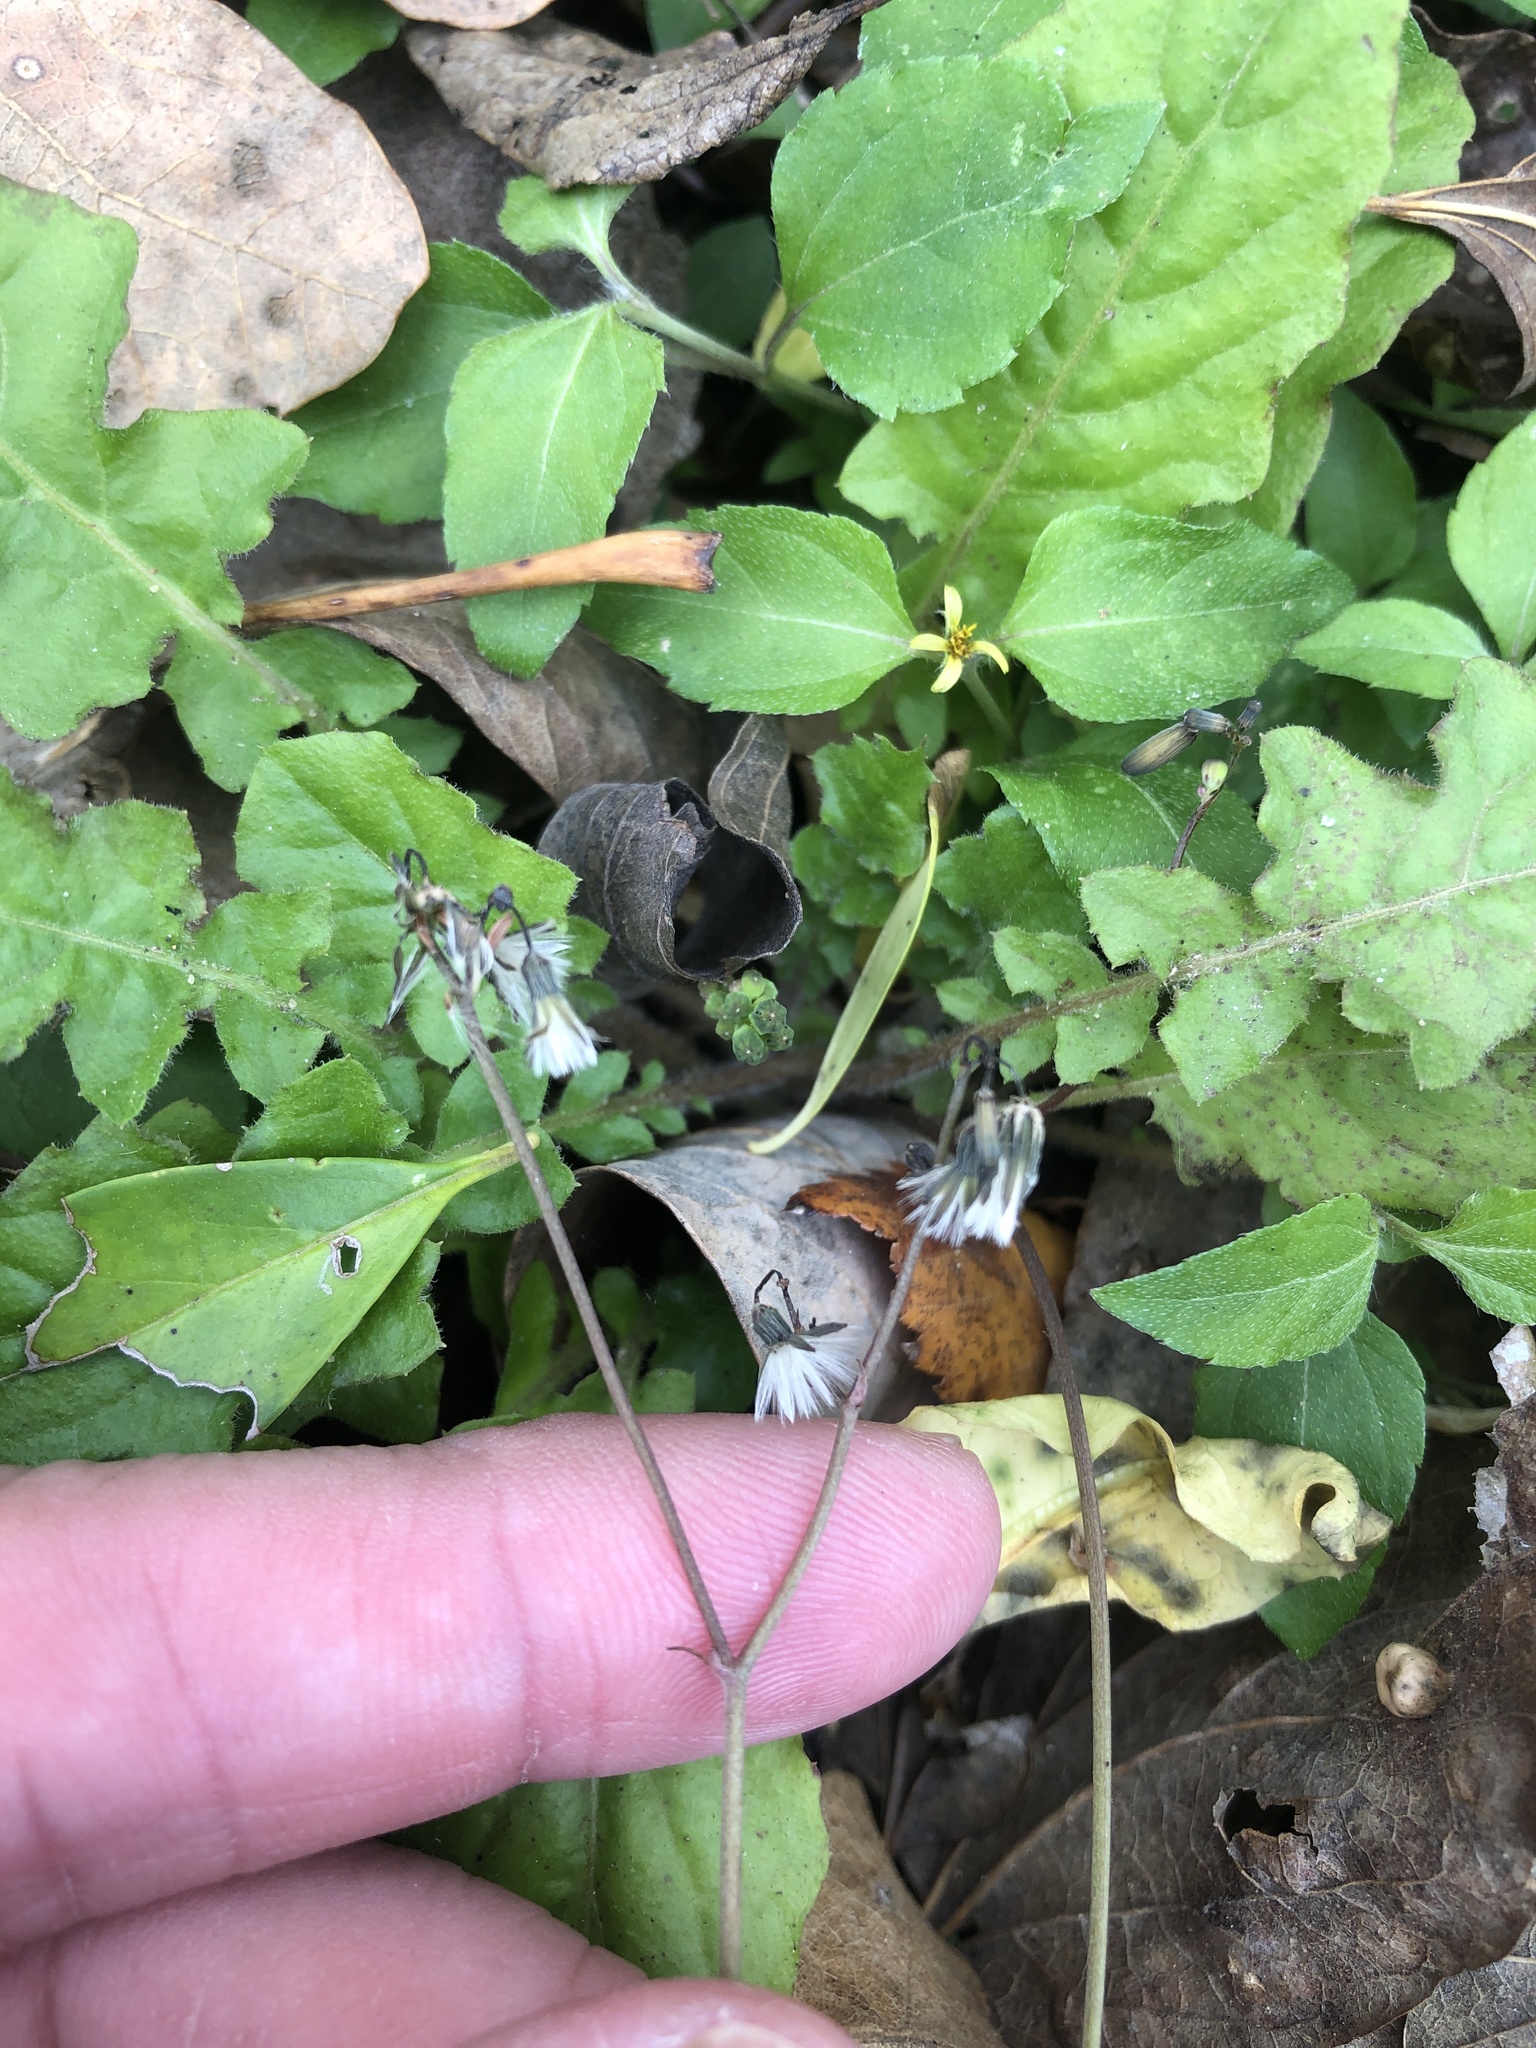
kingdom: Plantae
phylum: Tracheophyta
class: Magnoliopsida
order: Asterales
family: Asteraceae
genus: Youngia
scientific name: Youngia japonica
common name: Oriental false hawksbeard
